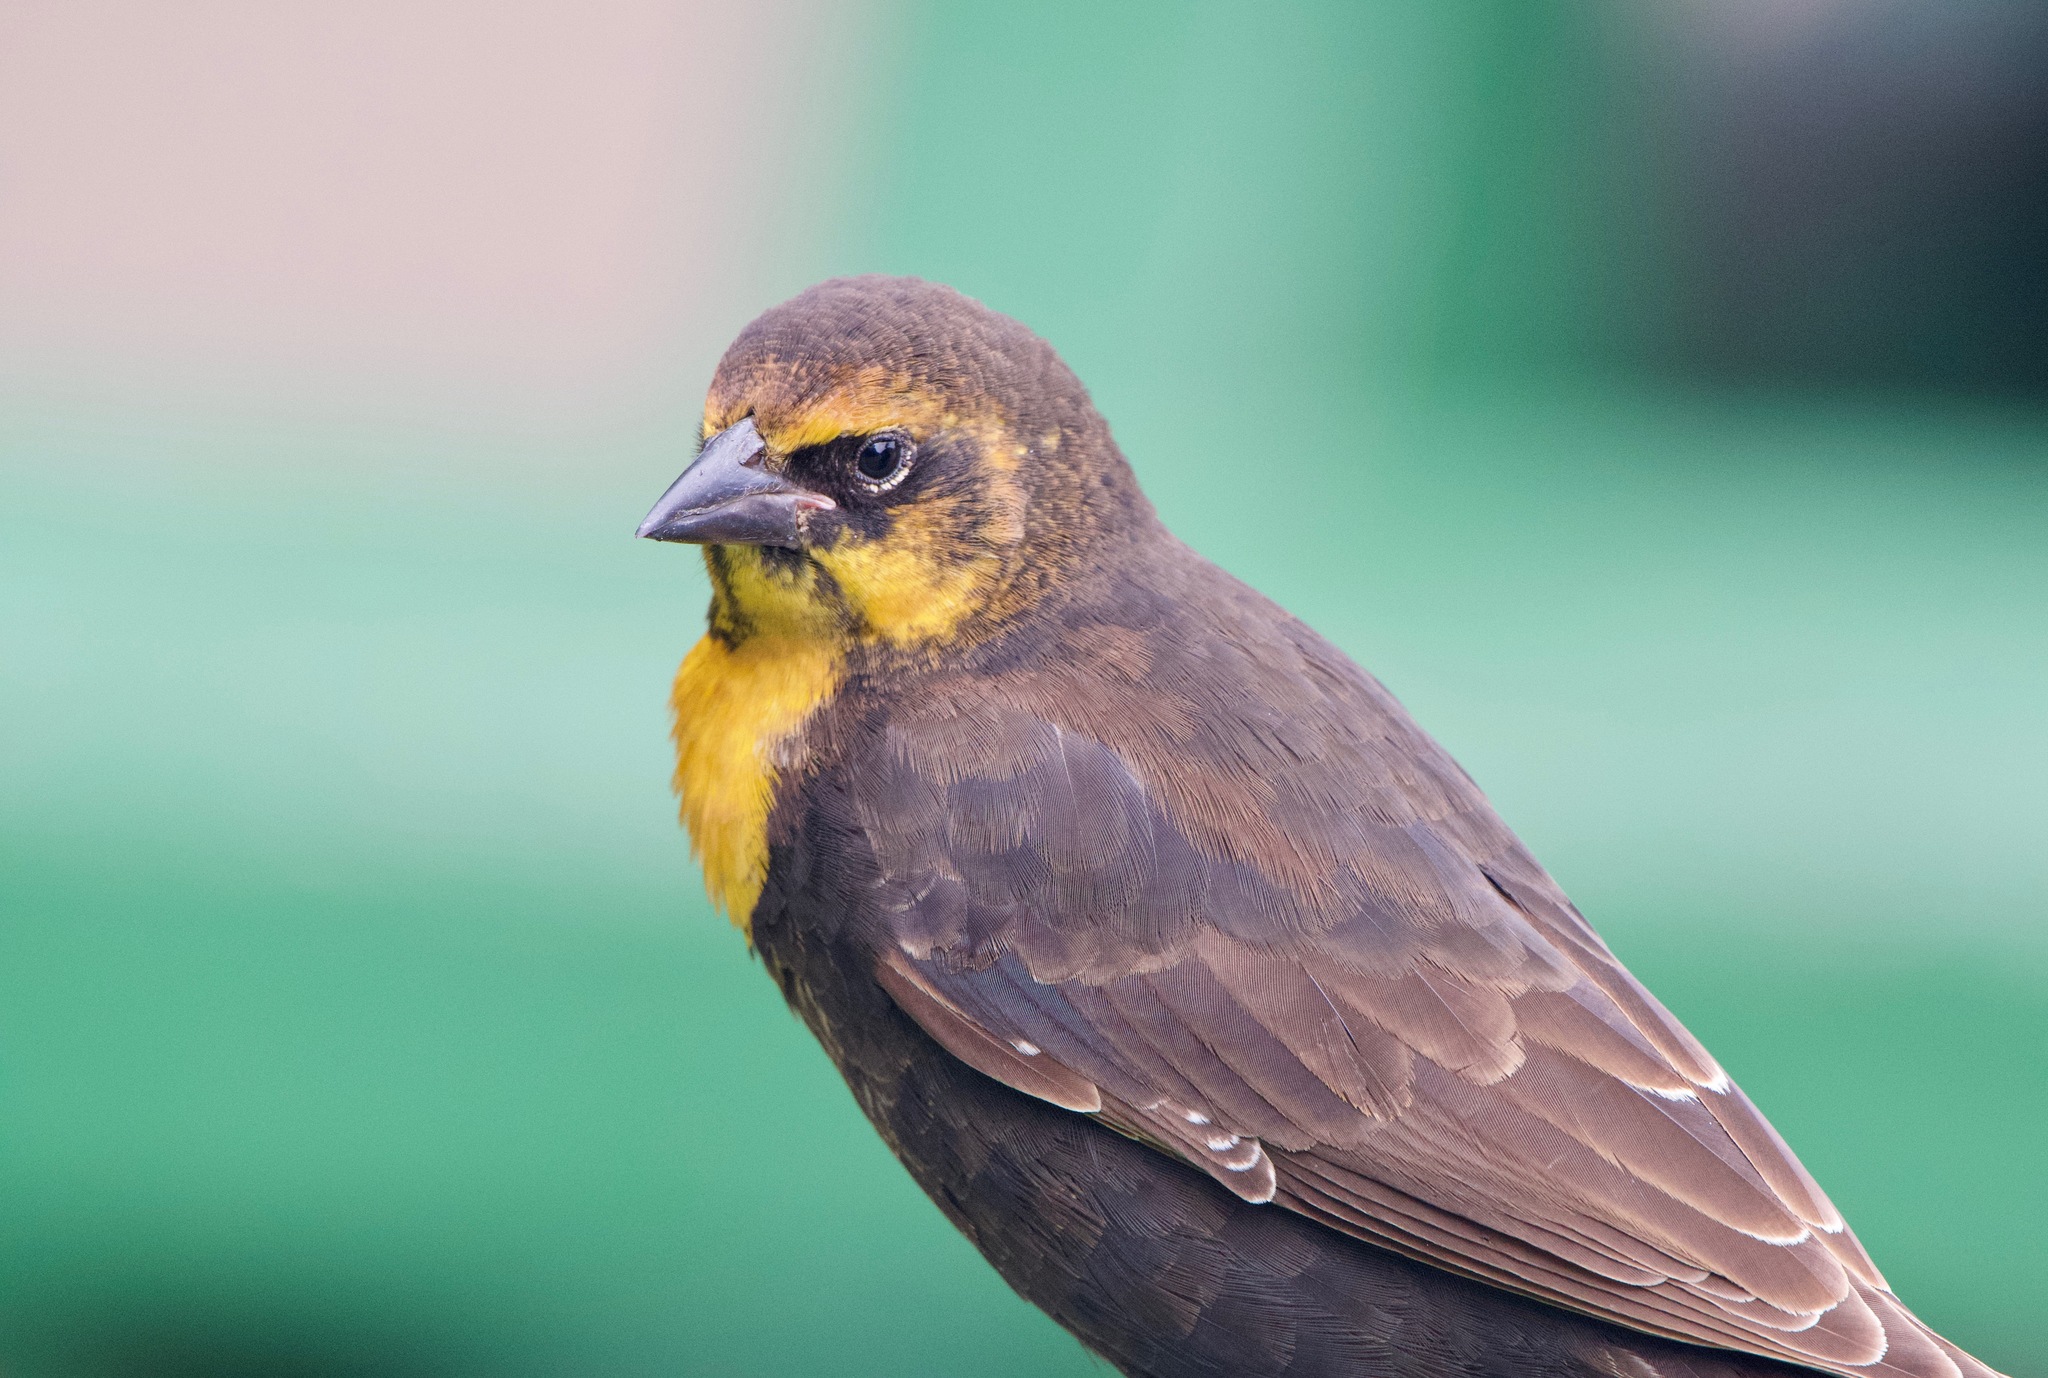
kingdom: Animalia
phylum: Chordata
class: Aves
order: Passeriformes
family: Icteridae
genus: Xanthocephalus
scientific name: Xanthocephalus xanthocephalus
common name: Yellow-headed blackbird
